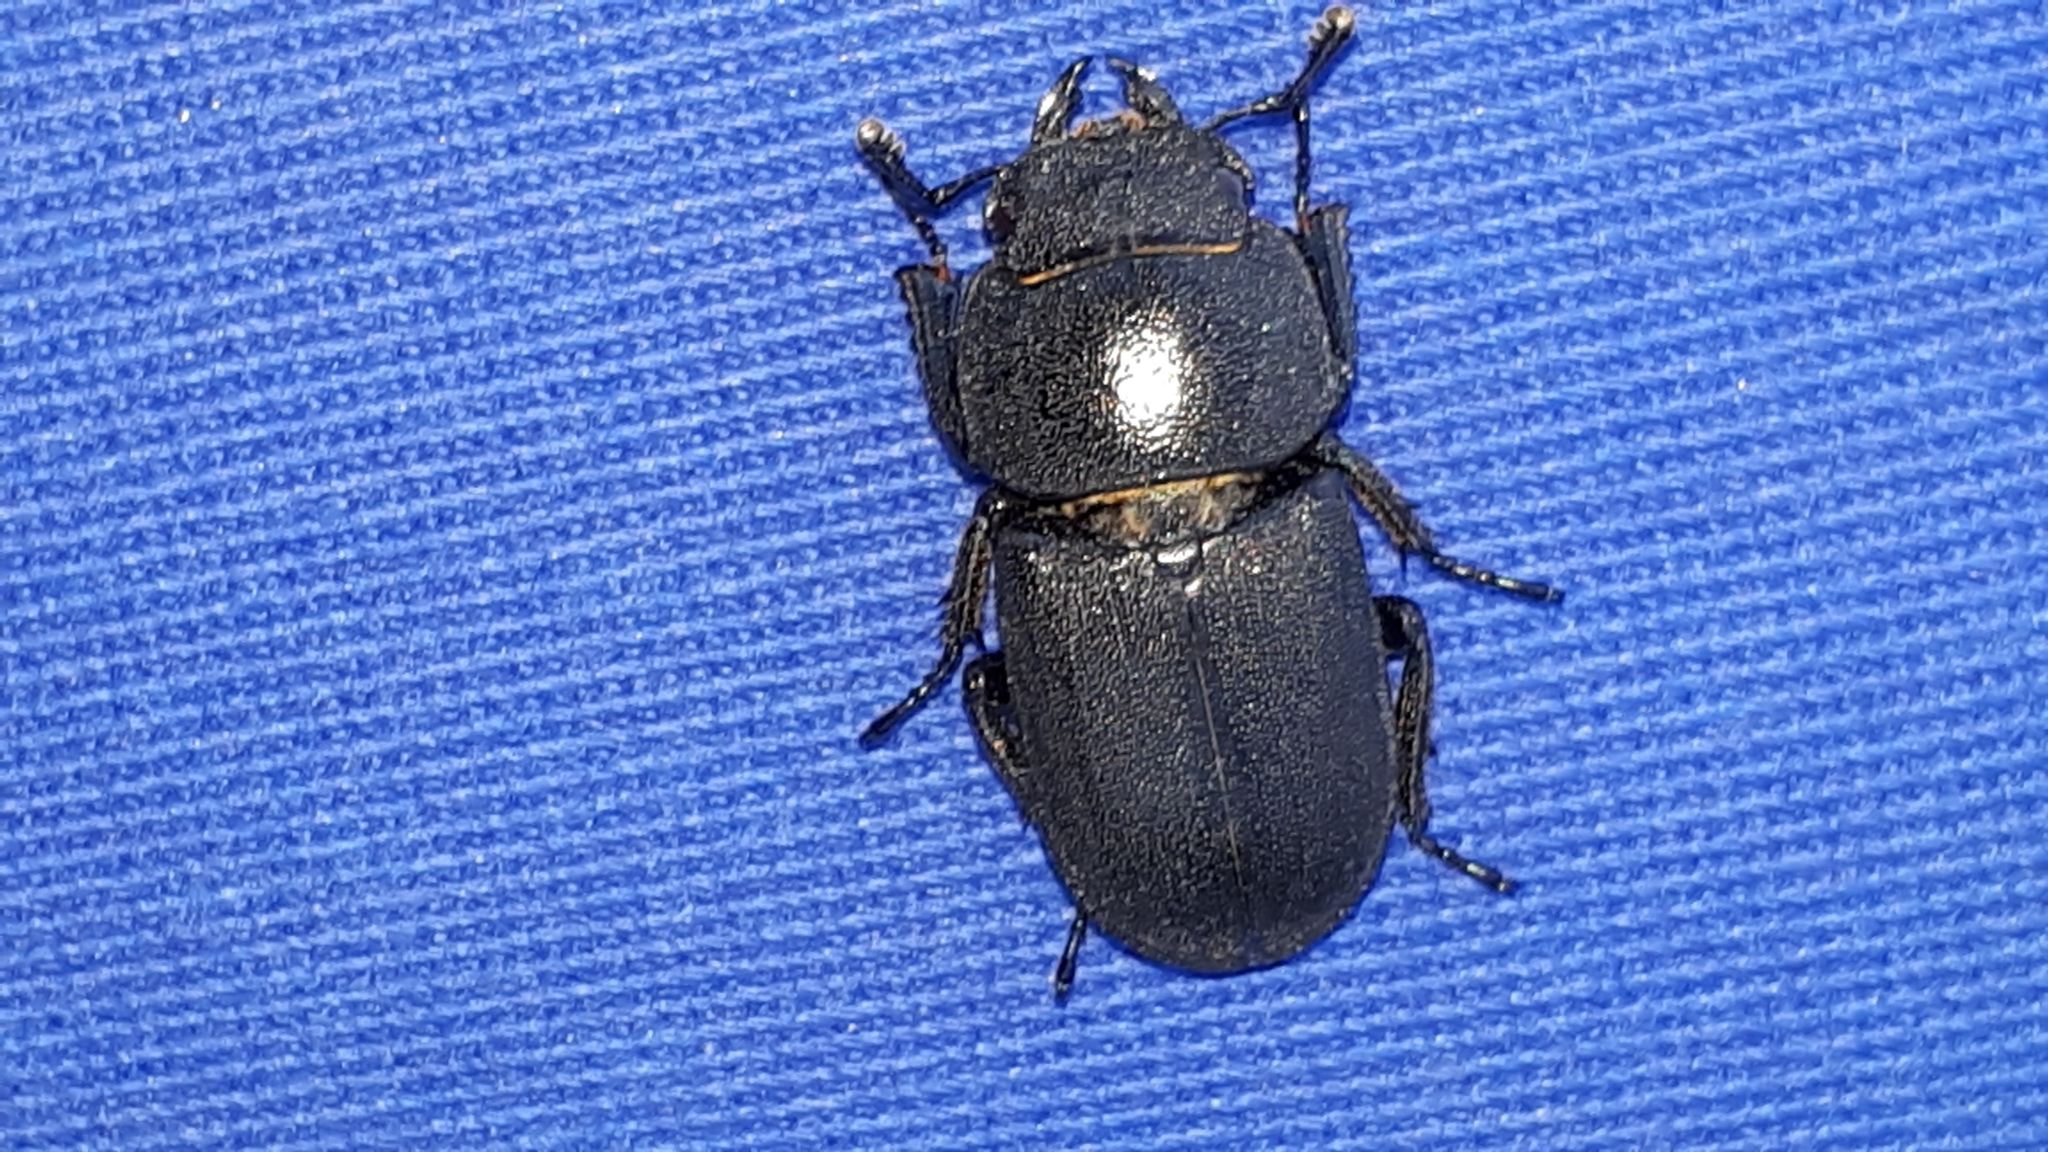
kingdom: Animalia
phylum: Arthropoda
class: Insecta
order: Coleoptera
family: Lucanidae
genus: Dorcus
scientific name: Dorcus parallelipipedus
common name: Lesser stag beetle
